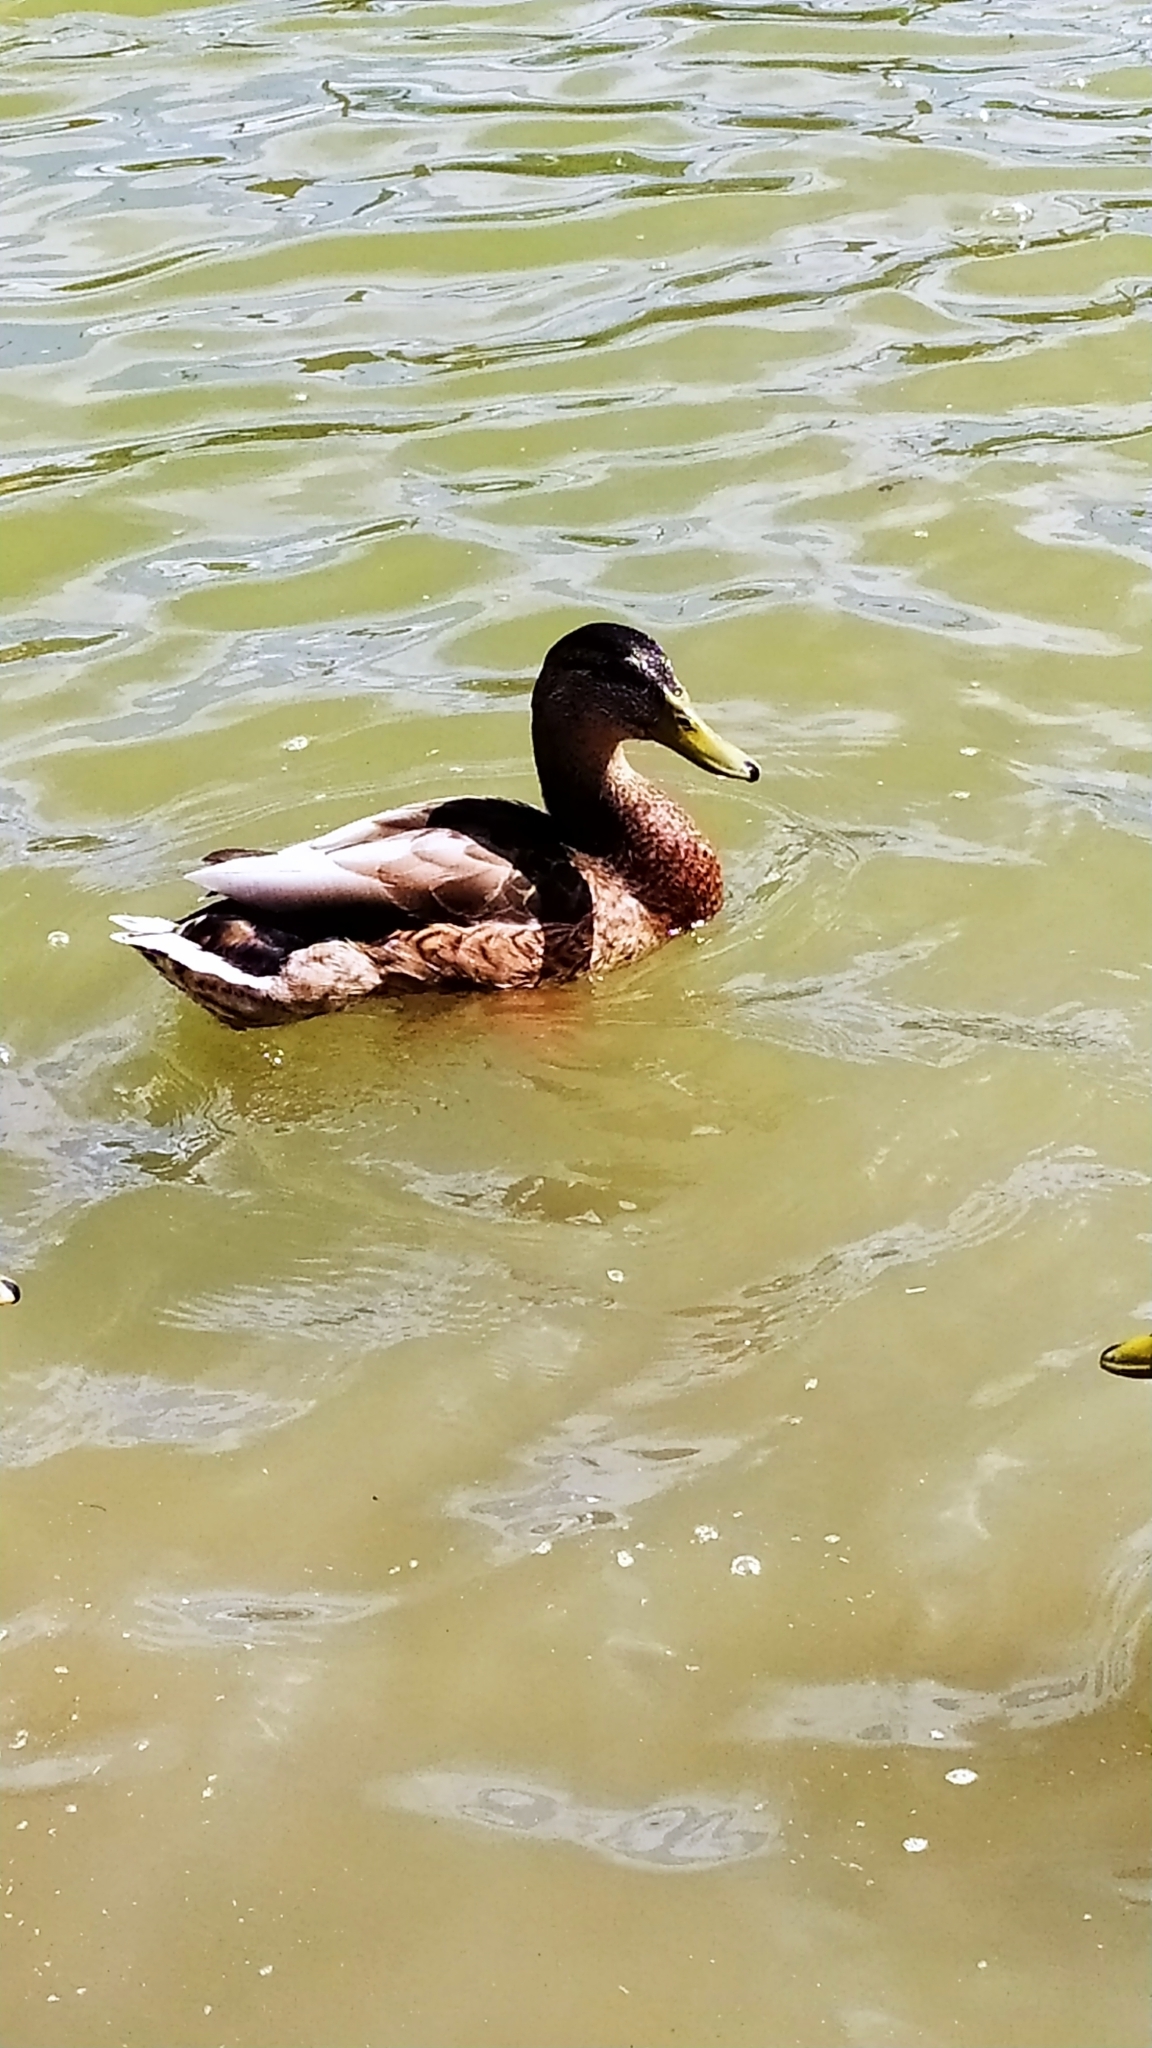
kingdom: Animalia
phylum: Chordata
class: Aves
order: Anseriformes
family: Anatidae
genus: Anas
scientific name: Anas platyrhynchos
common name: Mallard
